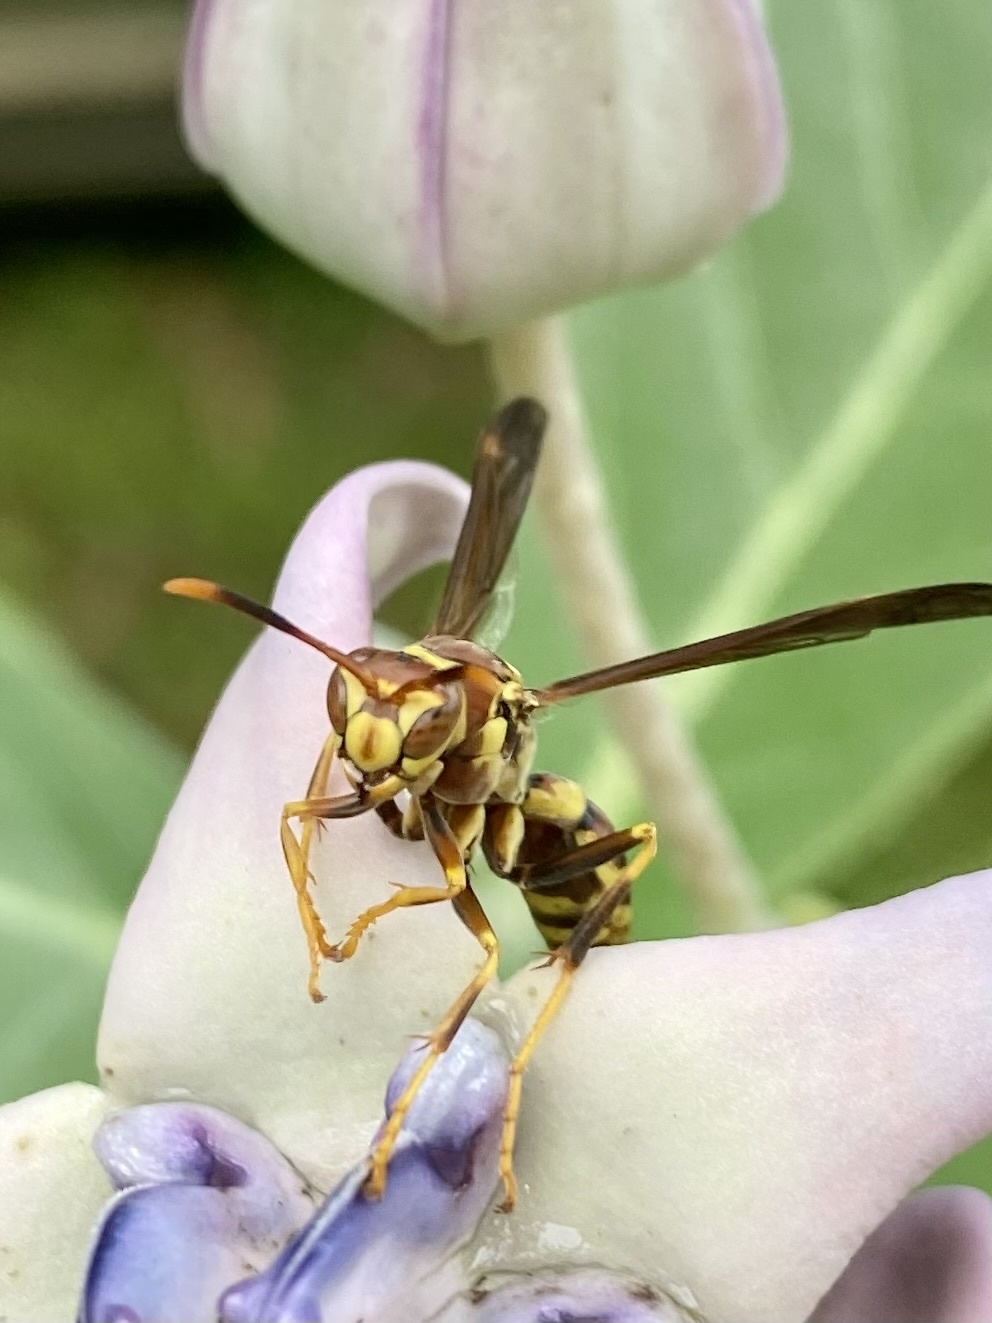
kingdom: Animalia
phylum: Arthropoda
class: Insecta
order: Hymenoptera
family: Eumenidae
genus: Polistes
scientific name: Polistes exclamans
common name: Paper wasp
